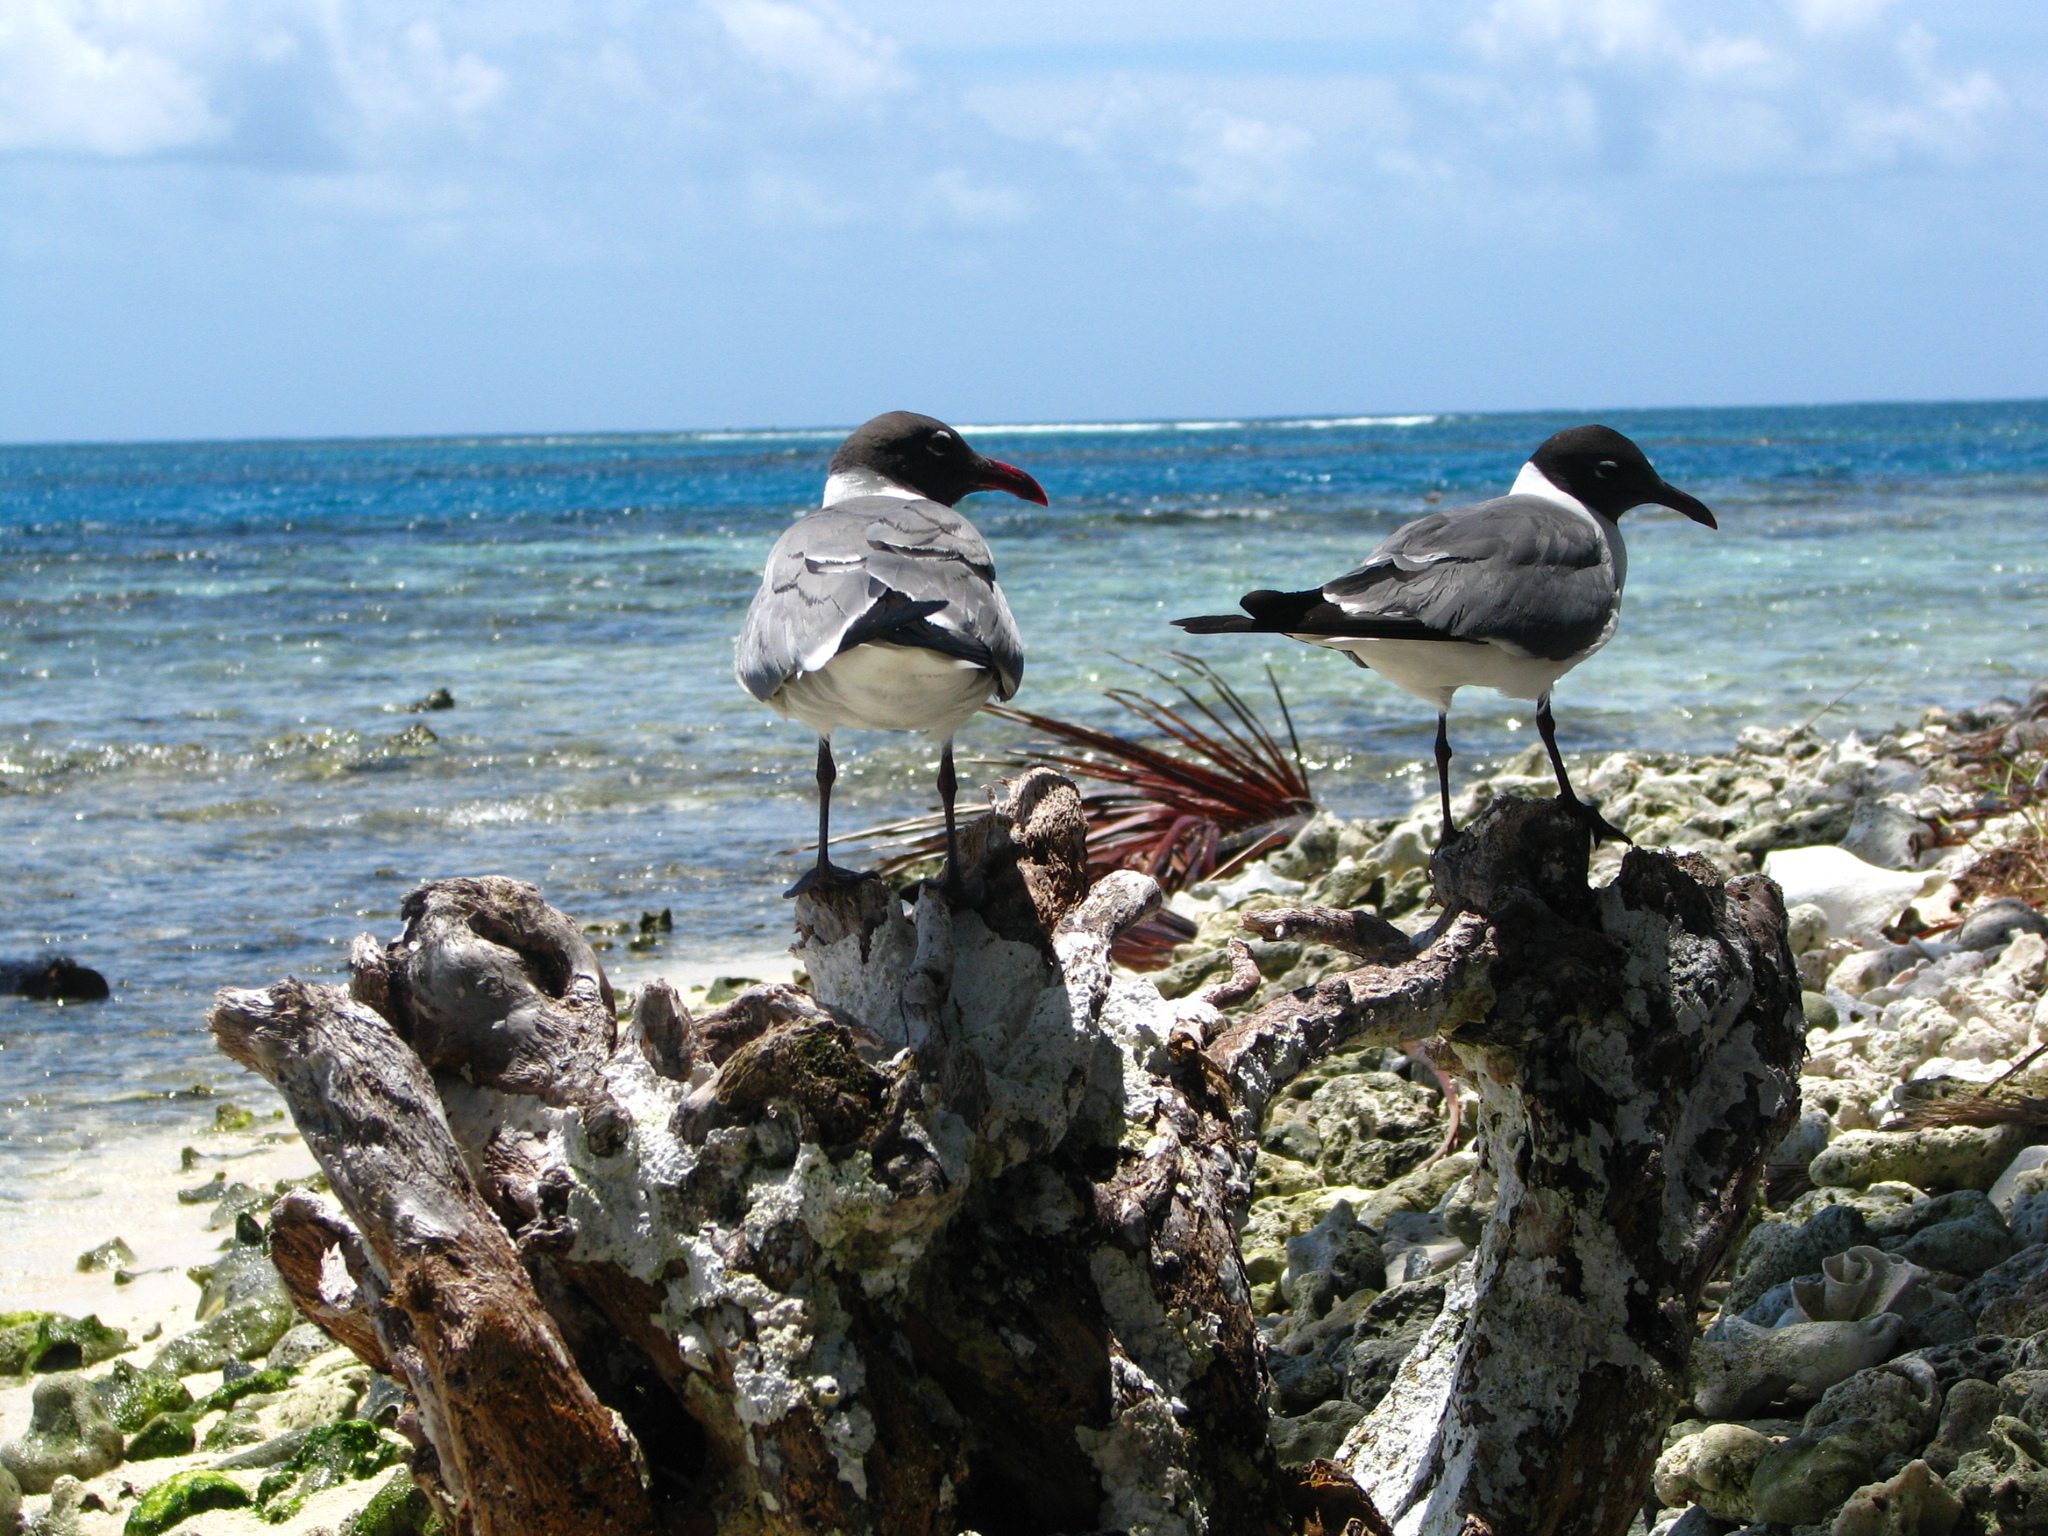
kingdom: Animalia
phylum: Chordata
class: Aves
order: Charadriiformes
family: Laridae
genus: Leucophaeus
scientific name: Leucophaeus atricilla
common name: Laughing gull
